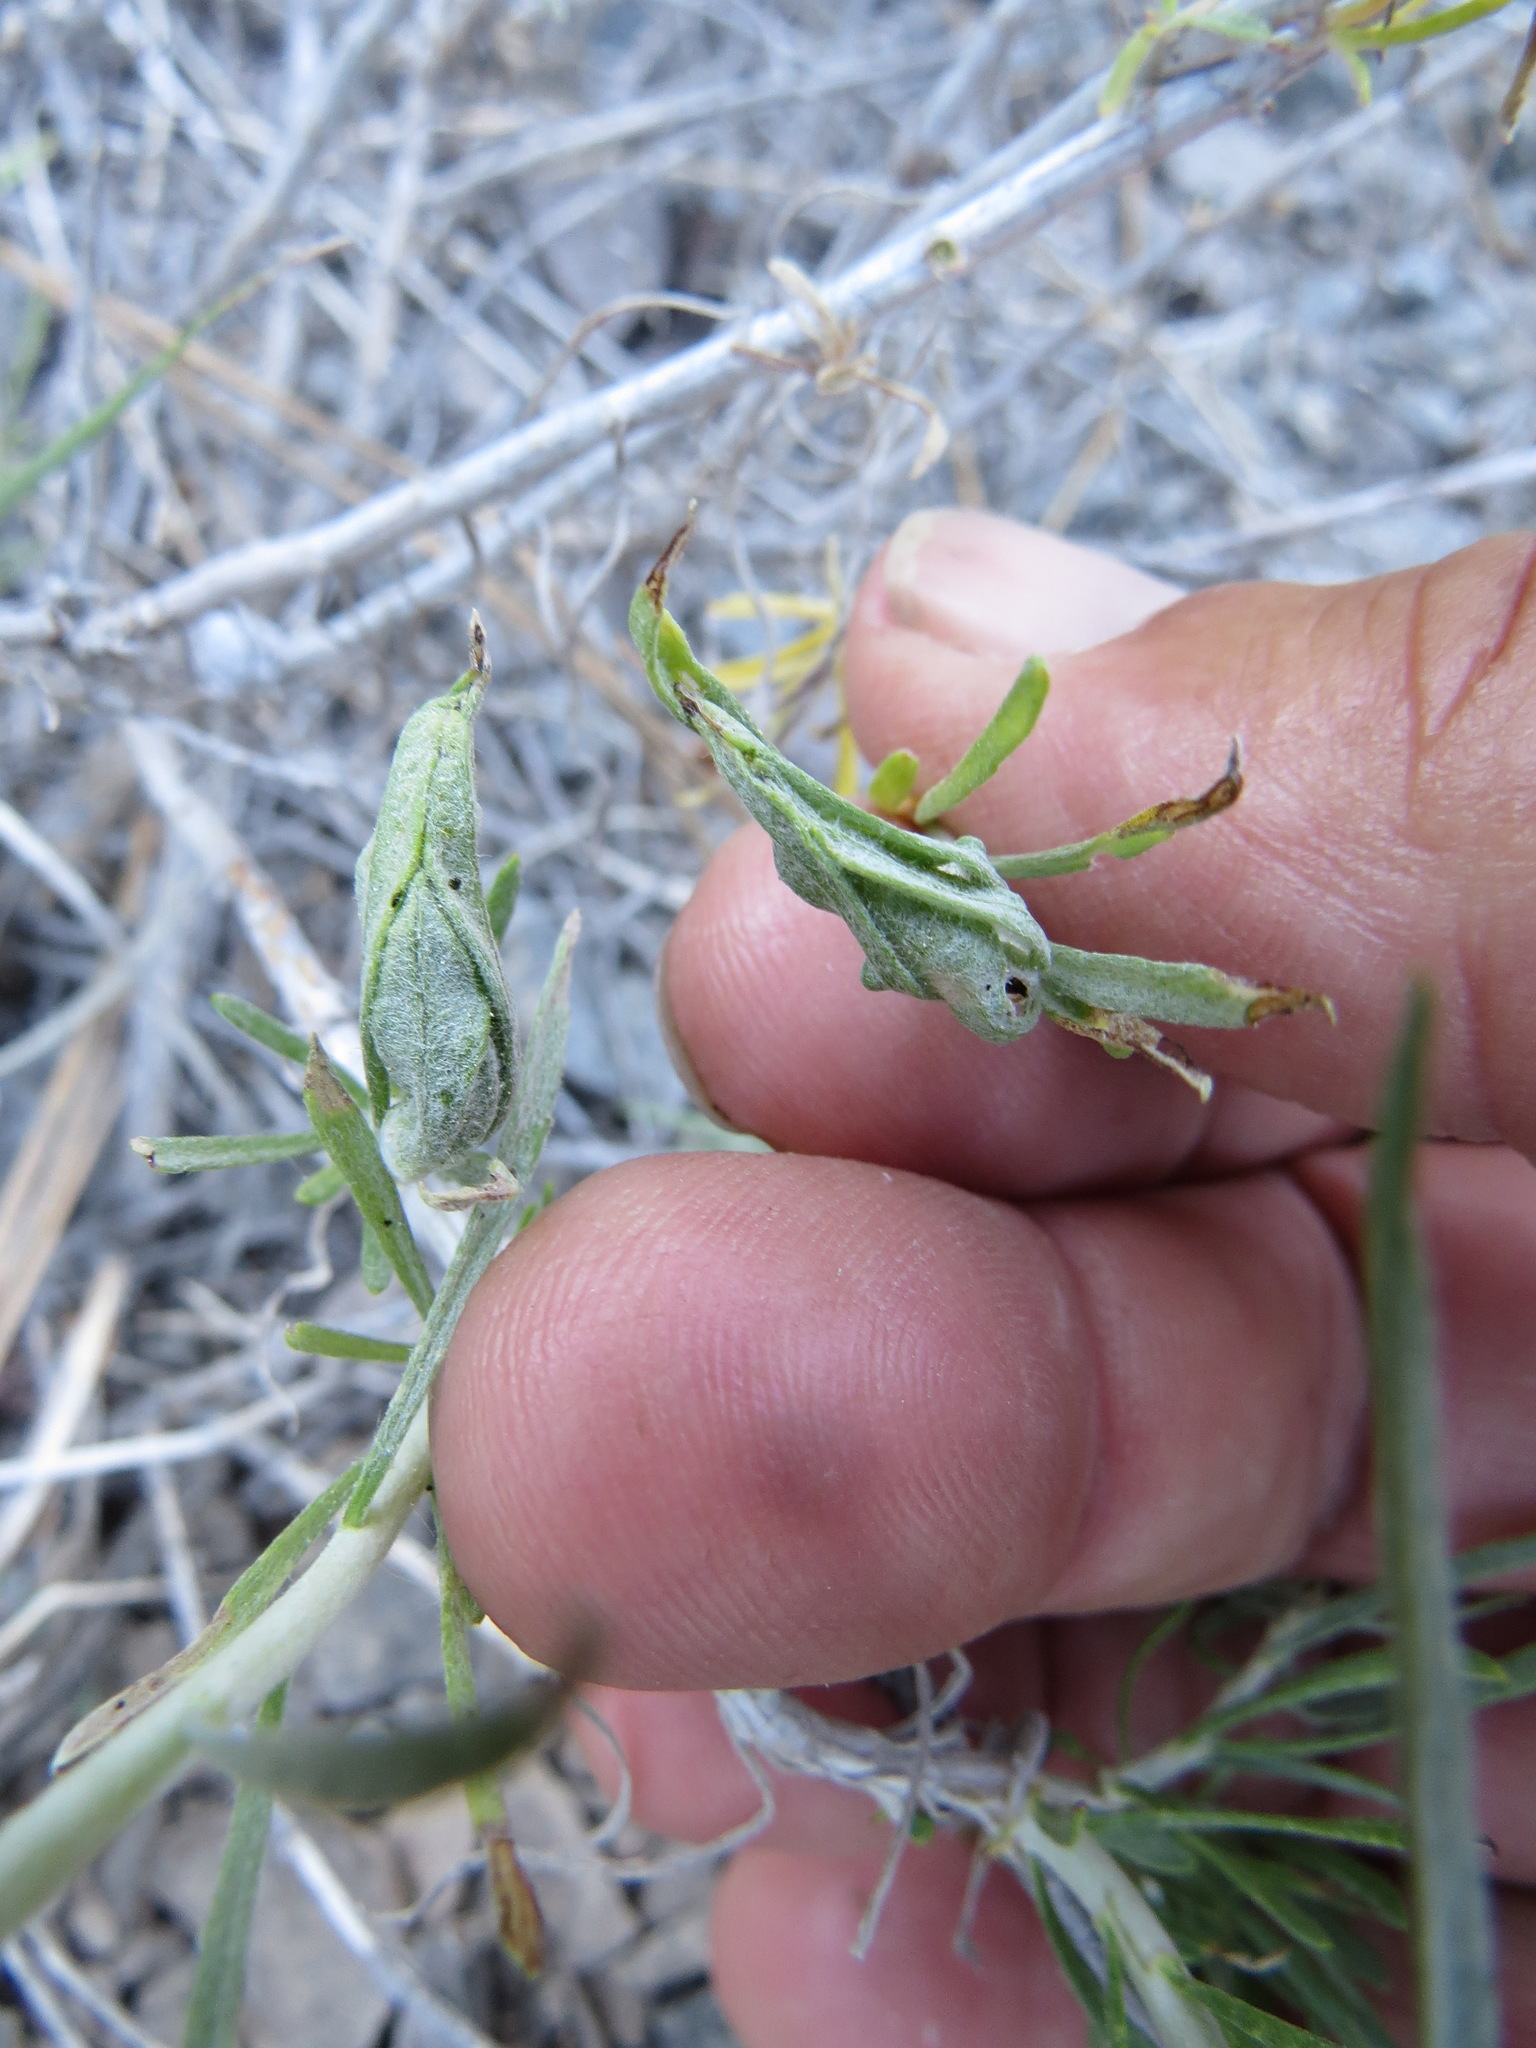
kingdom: Animalia
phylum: Arthropoda
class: Insecta
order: Lepidoptera
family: Gelechiidae
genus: Gnorimoschema
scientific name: Gnorimoschema octomaculella
